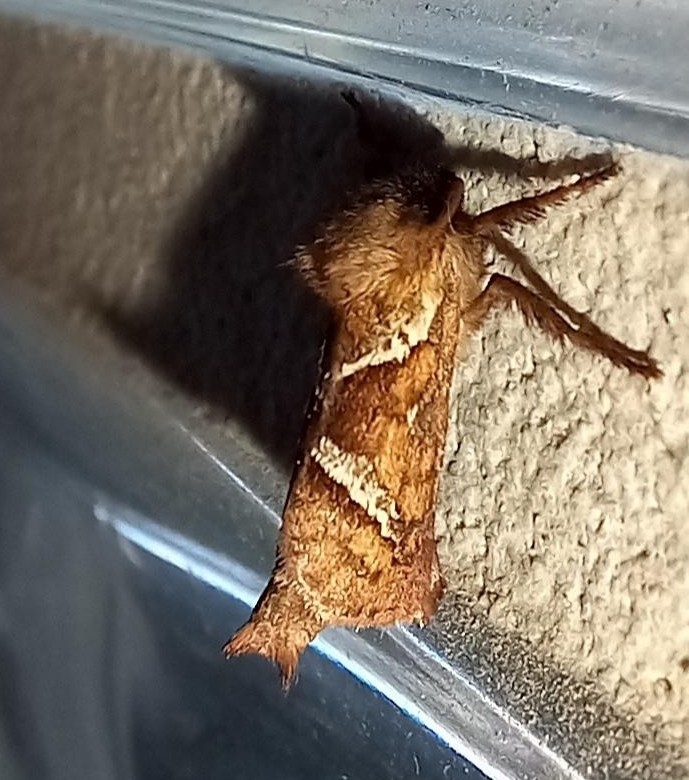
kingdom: Animalia
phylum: Arthropoda
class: Insecta
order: Lepidoptera
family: Hepialidae
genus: Triodia
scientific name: Triodia sylvina
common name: Orange swift
